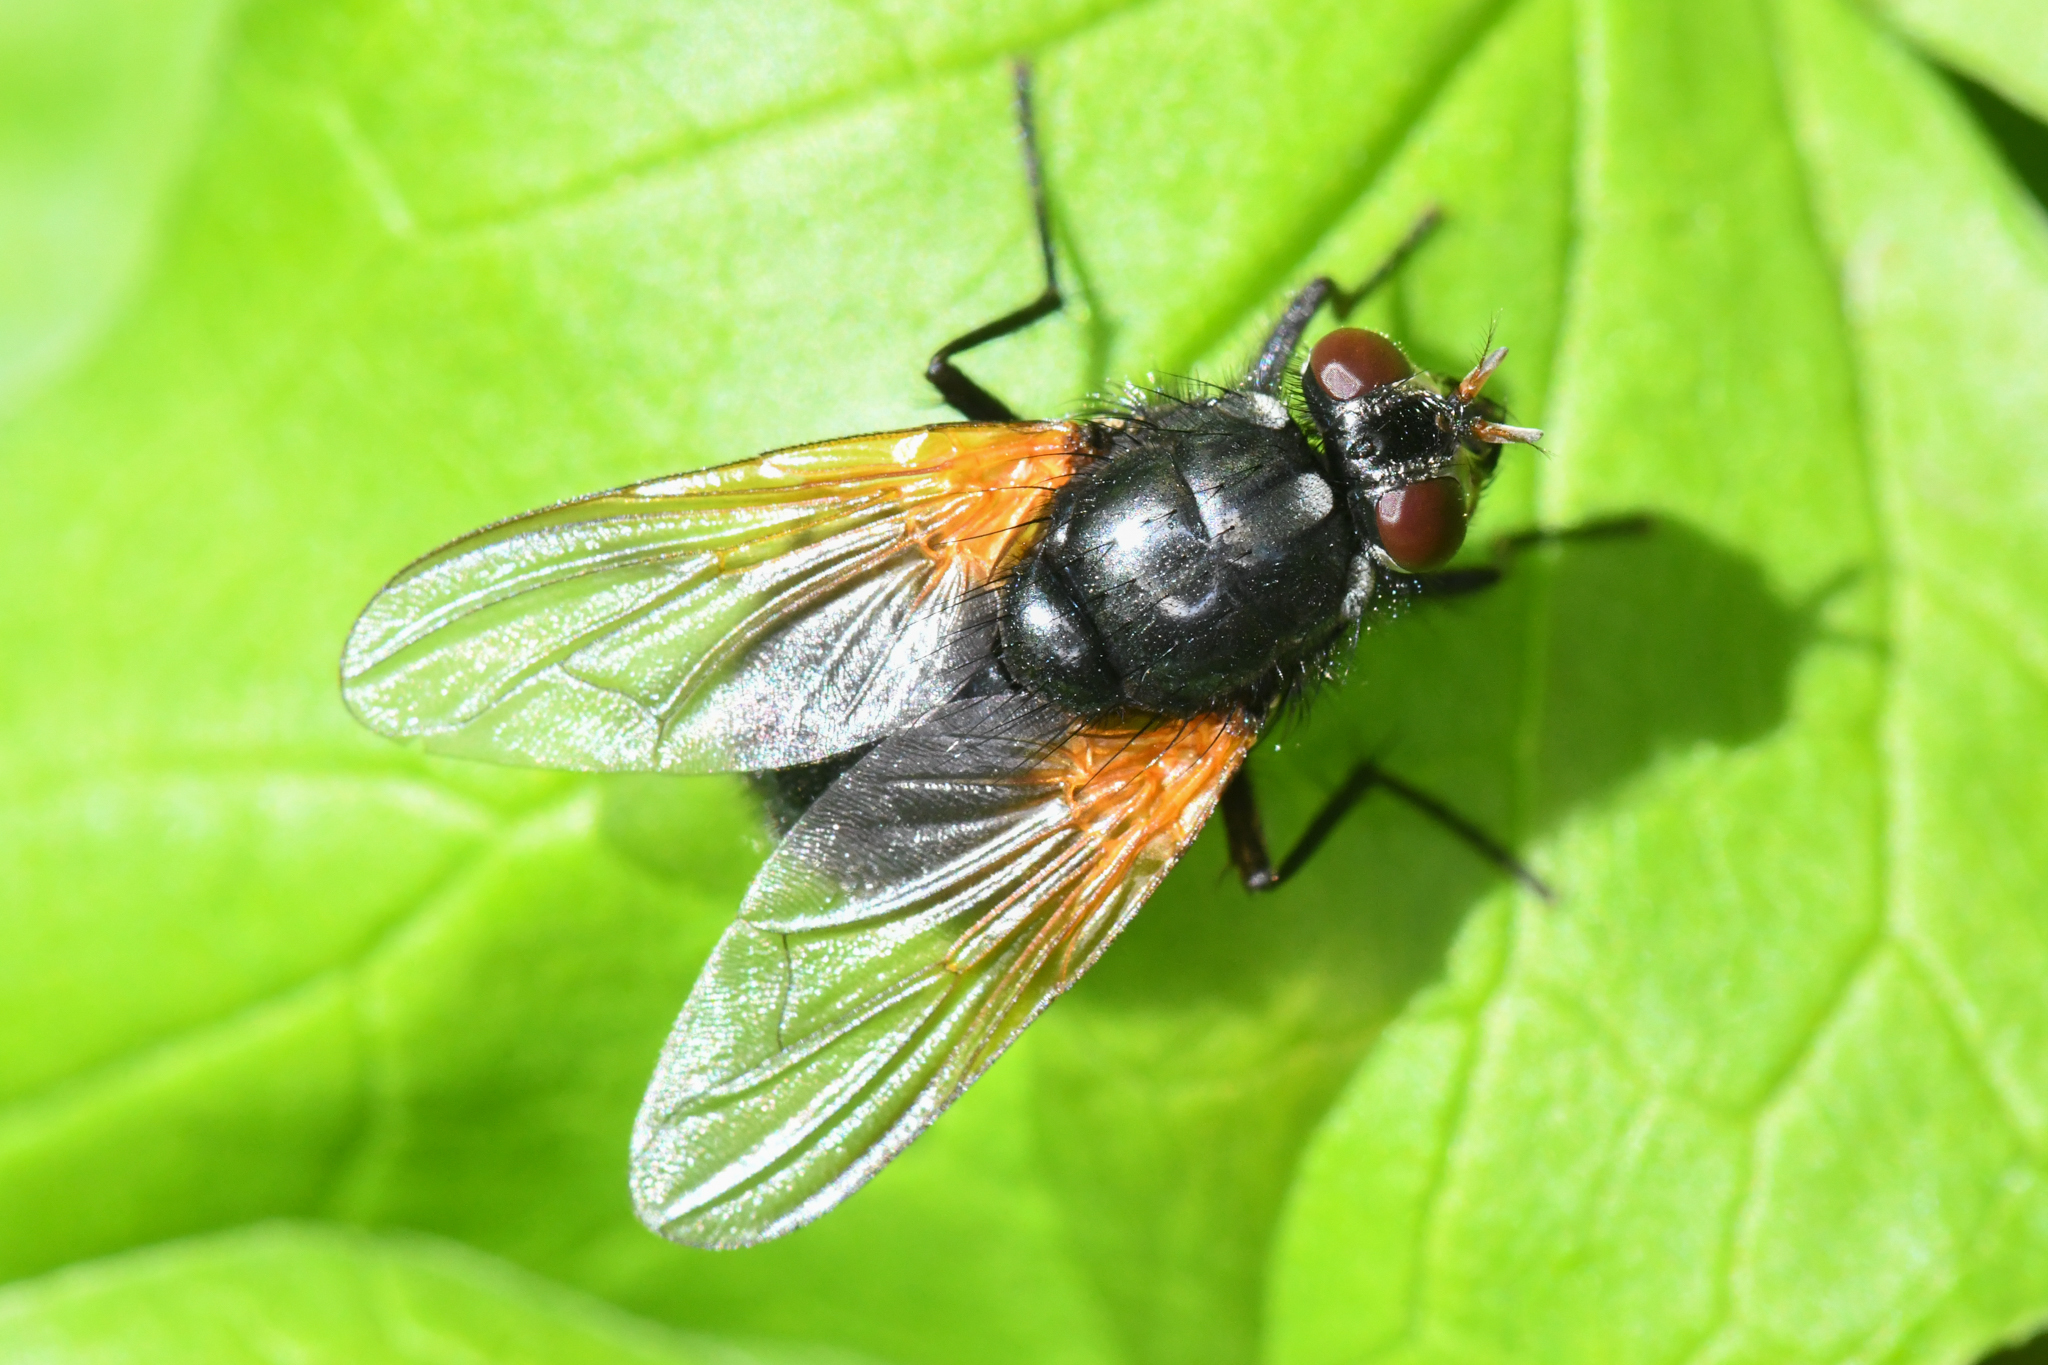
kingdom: Animalia
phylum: Arthropoda
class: Insecta
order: Diptera
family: Muscidae
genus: Mesembrina
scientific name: Mesembrina latreillii
